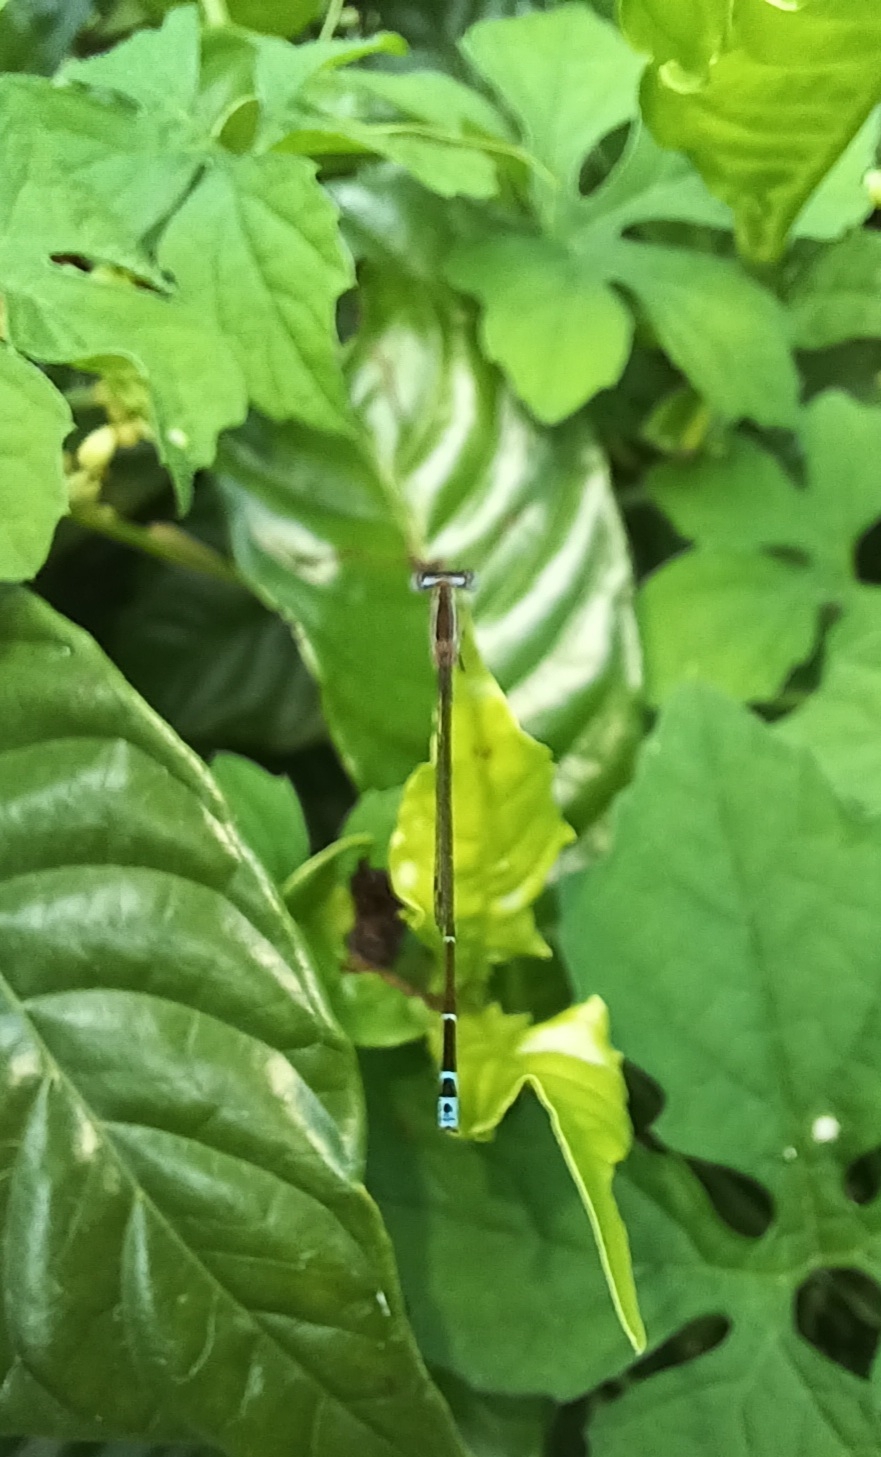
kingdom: Animalia
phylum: Arthropoda
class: Insecta
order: Odonata
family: Coenagrionidae
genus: Nehalennia
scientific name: Nehalennia pallidula
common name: Everglades sprite
